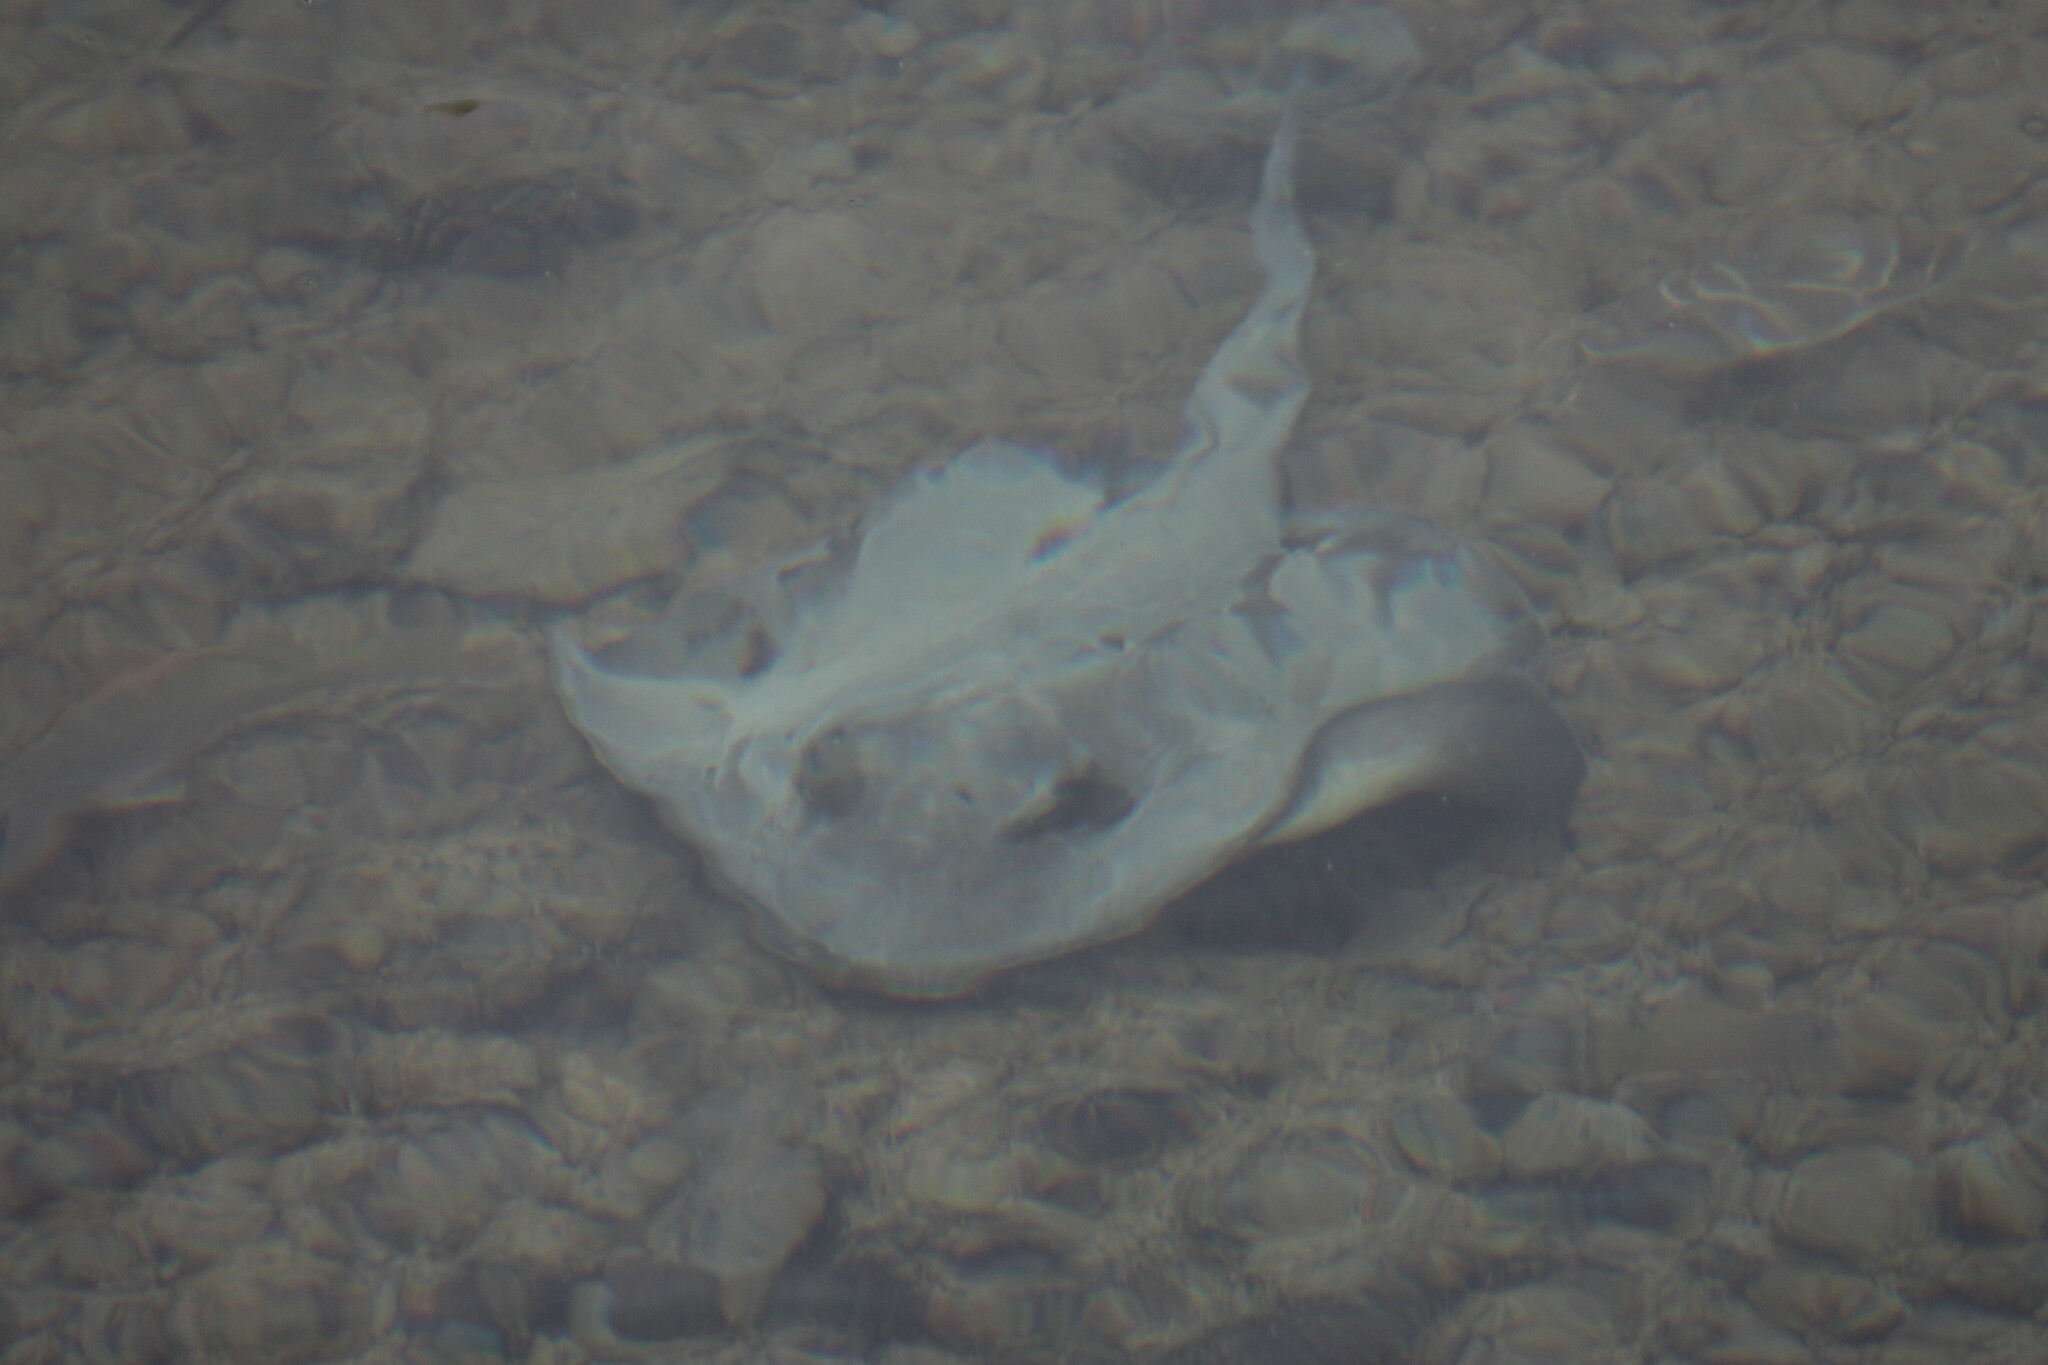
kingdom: Animalia
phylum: Chordata
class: Elasmobranchii
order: Myliobatiformes
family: Dasyatidae
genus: Hypanus
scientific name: Hypanus dipterurus
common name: Diamond stingray
